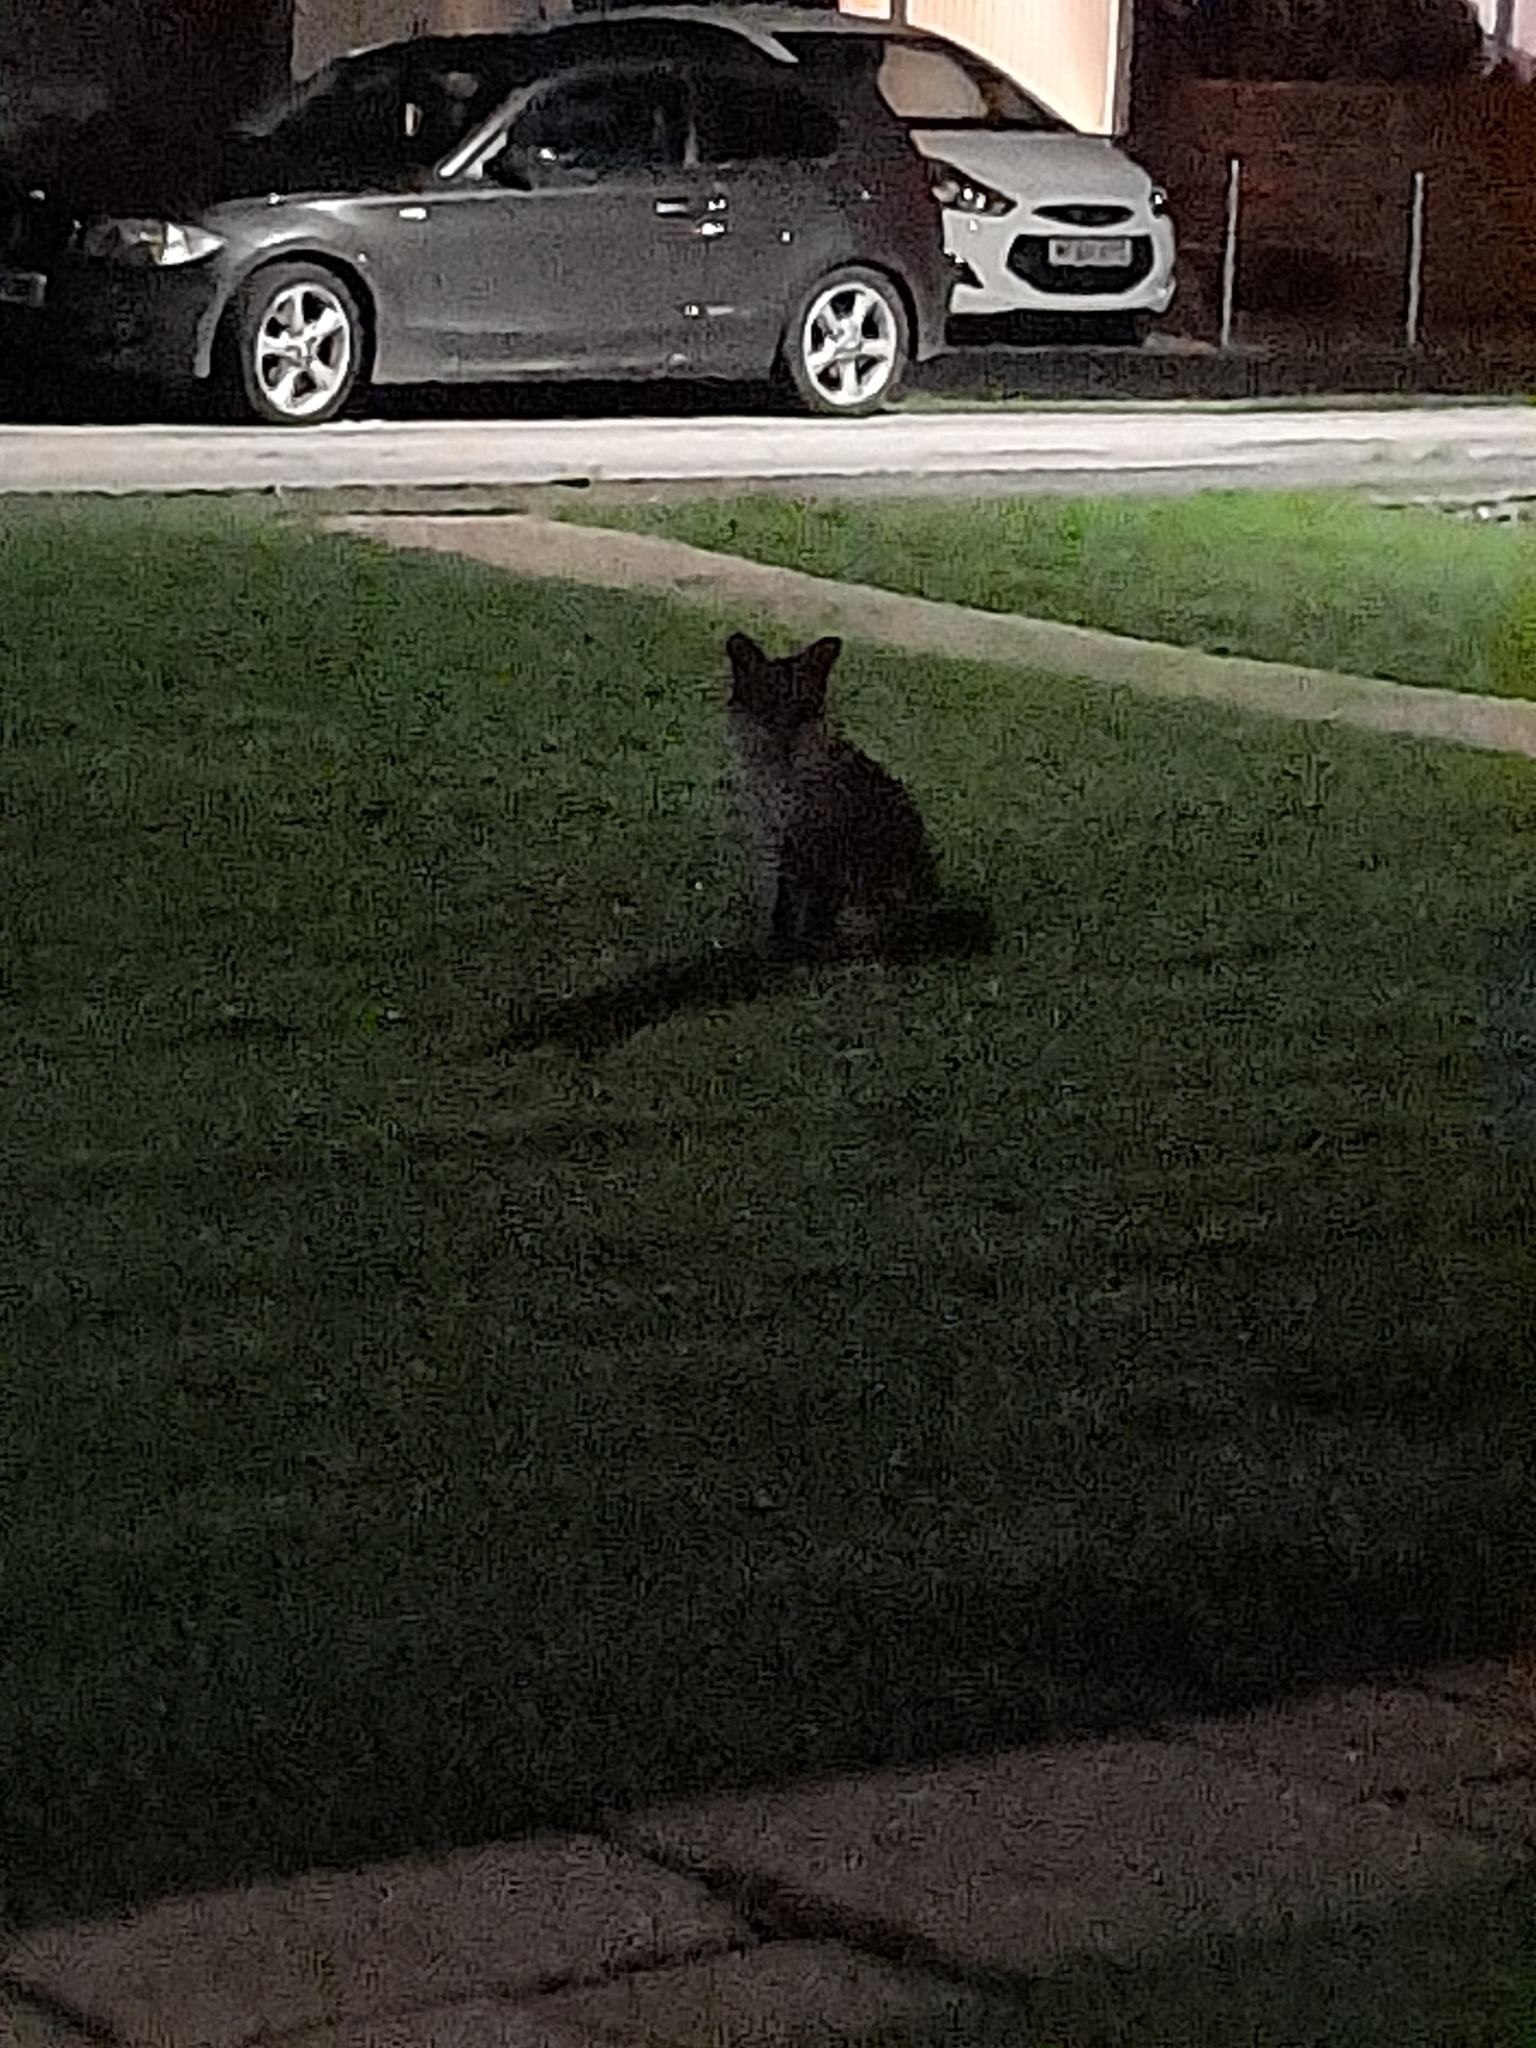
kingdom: Animalia
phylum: Chordata
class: Mammalia
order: Carnivora
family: Canidae
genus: Vulpes
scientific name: Vulpes vulpes
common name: Red fox
